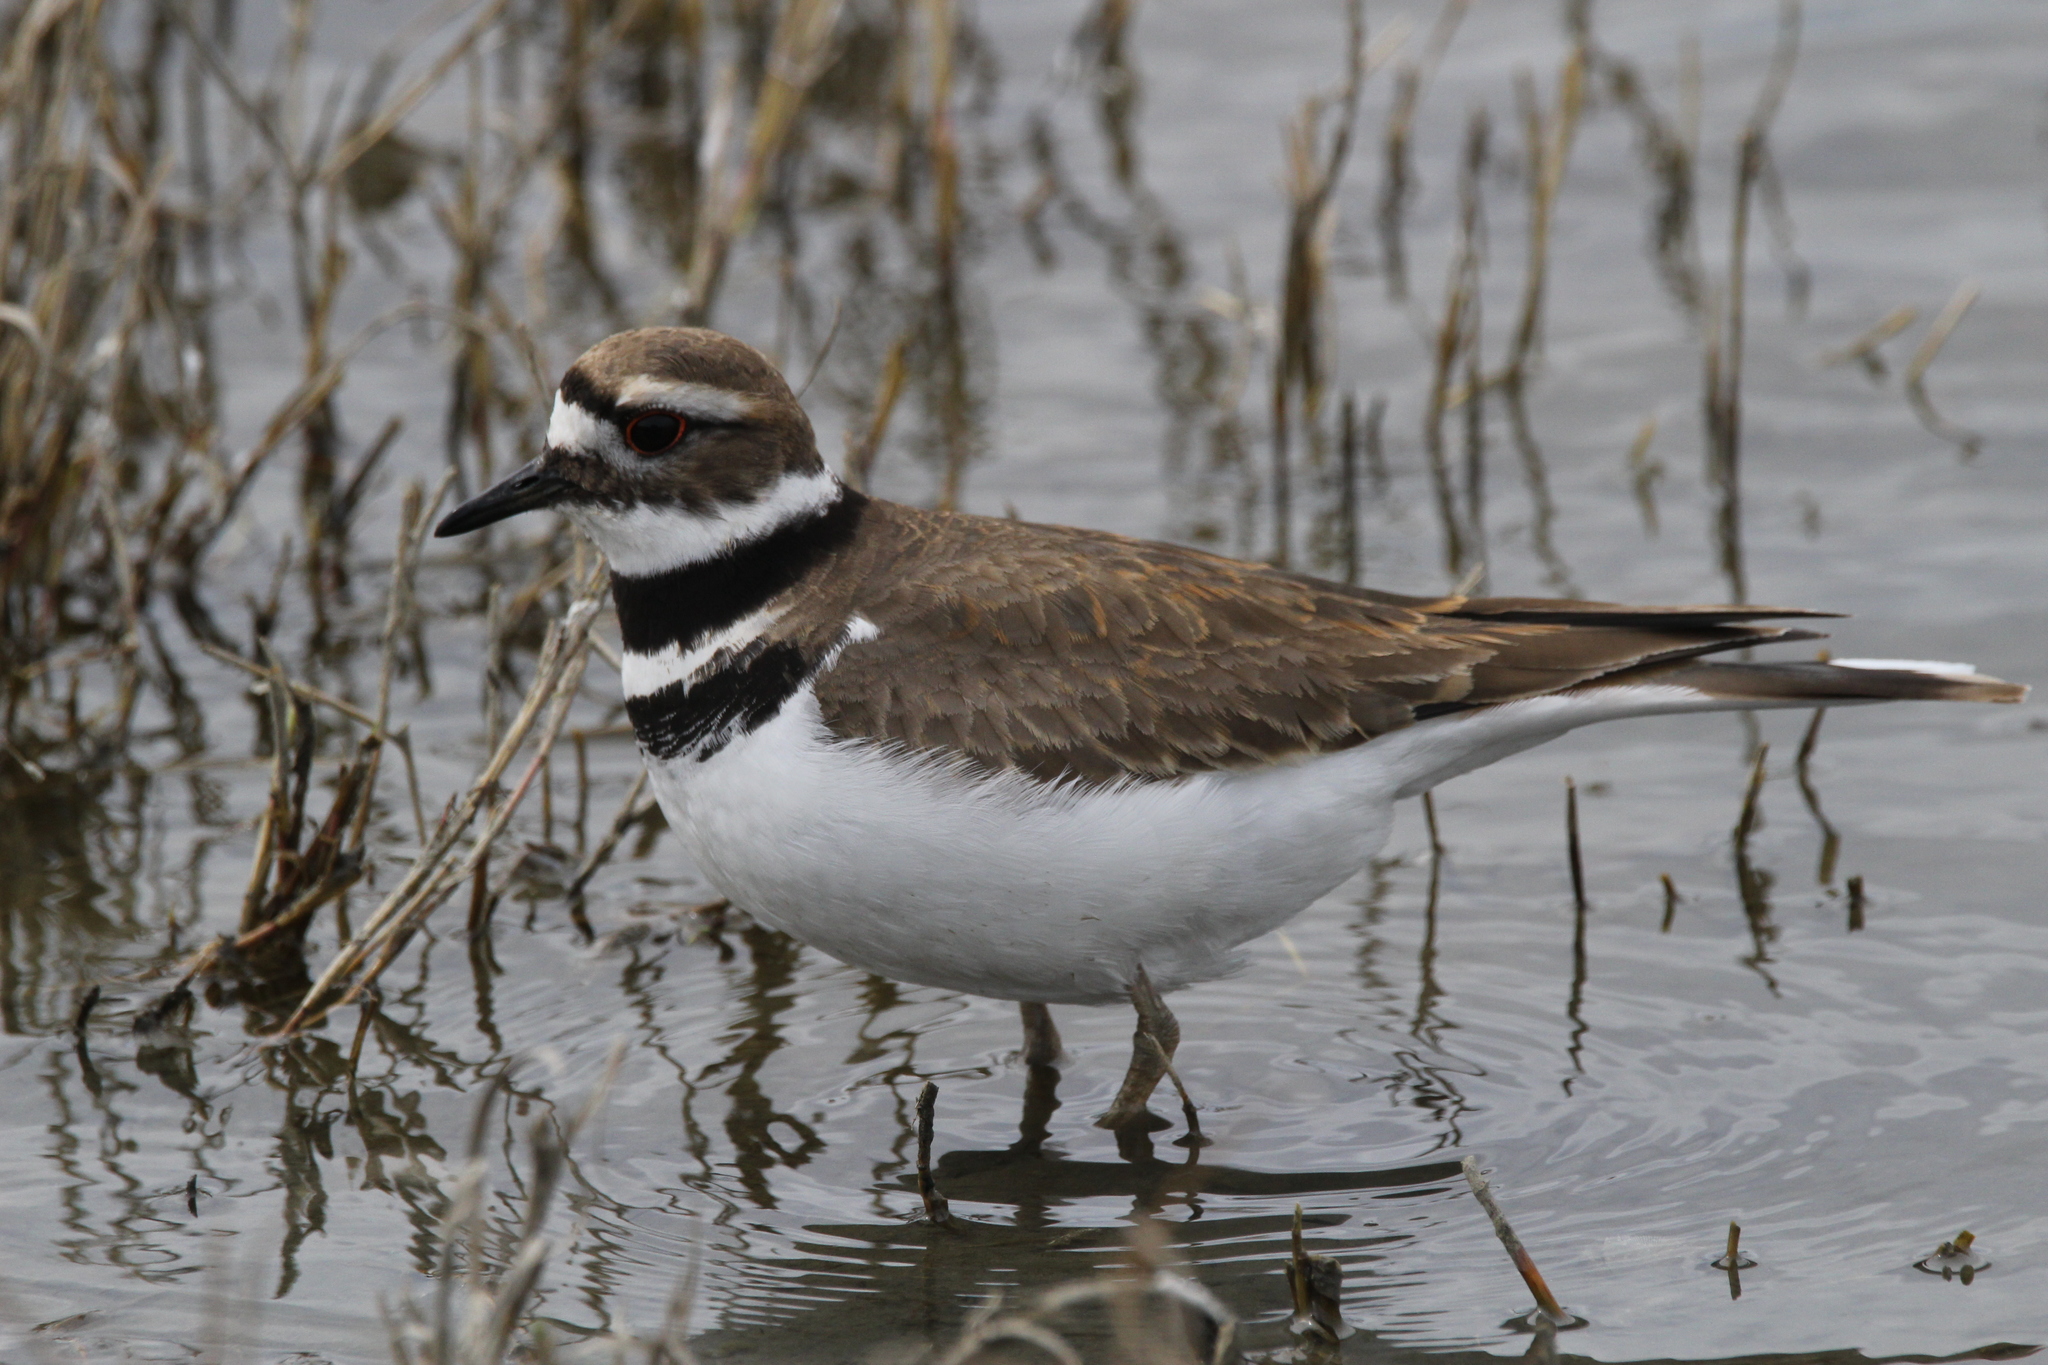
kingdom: Animalia
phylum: Chordata
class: Aves
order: Charadriiformes
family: Charadriidae
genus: Charadrius
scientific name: Charadrius vociferus
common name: Killdeer
